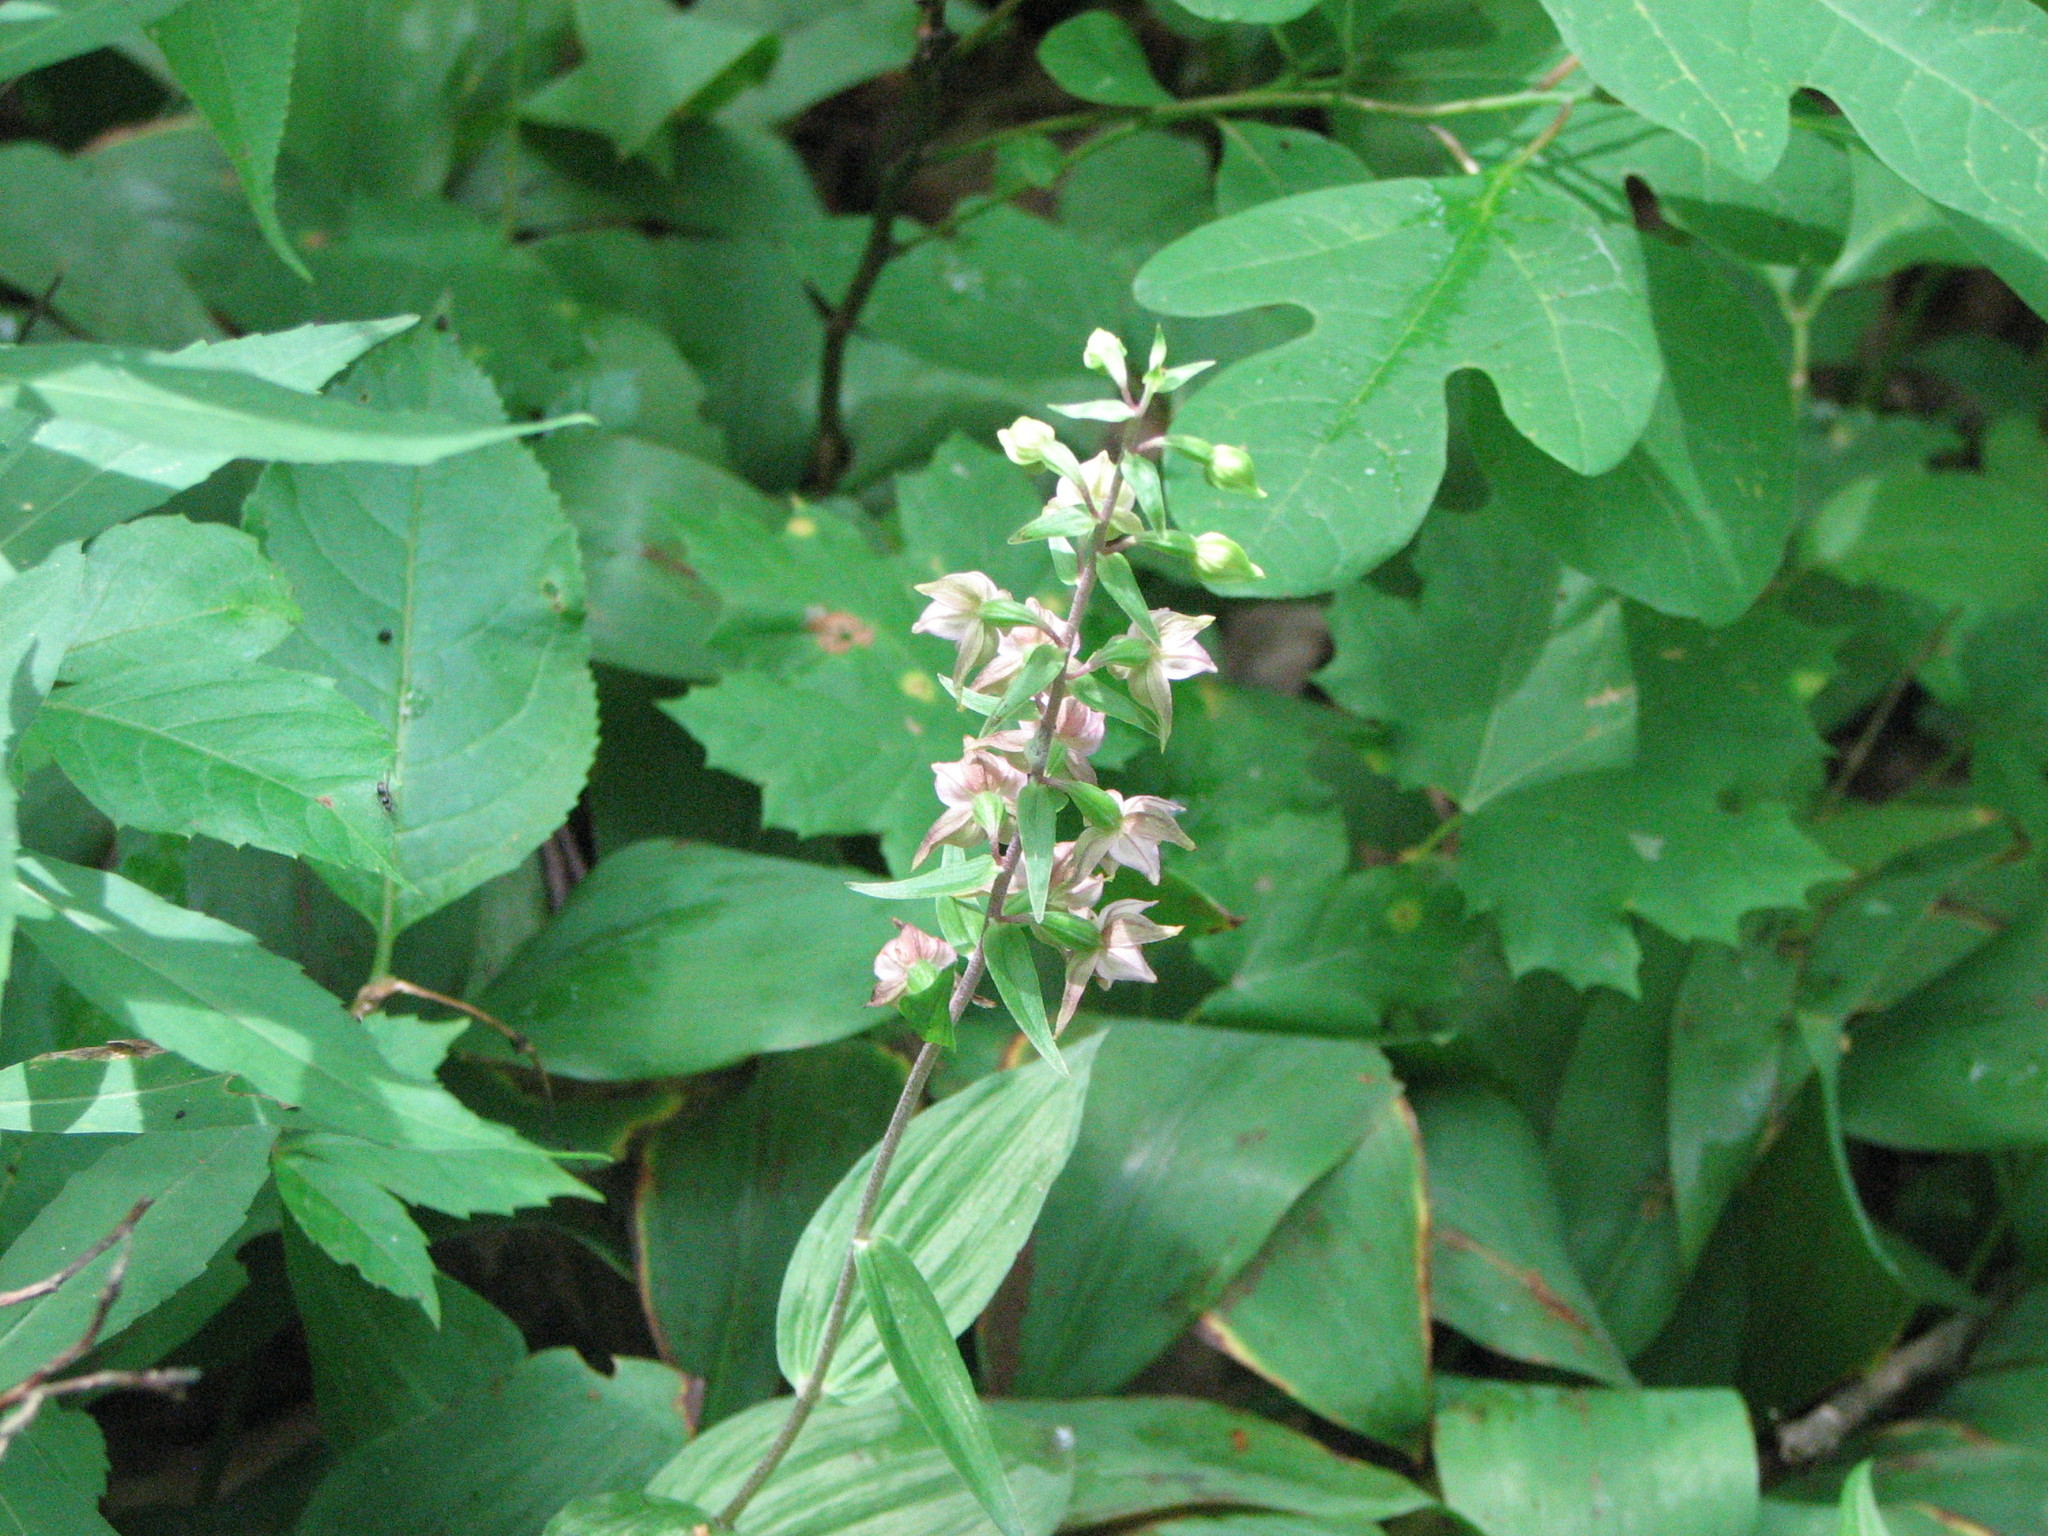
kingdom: Plantae
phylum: Tracheophyta
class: Liliopsida
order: Asparagales
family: Orchidaceae
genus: Epipactis
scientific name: Epipactis helleborine
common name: Broad-leaved helleborine
